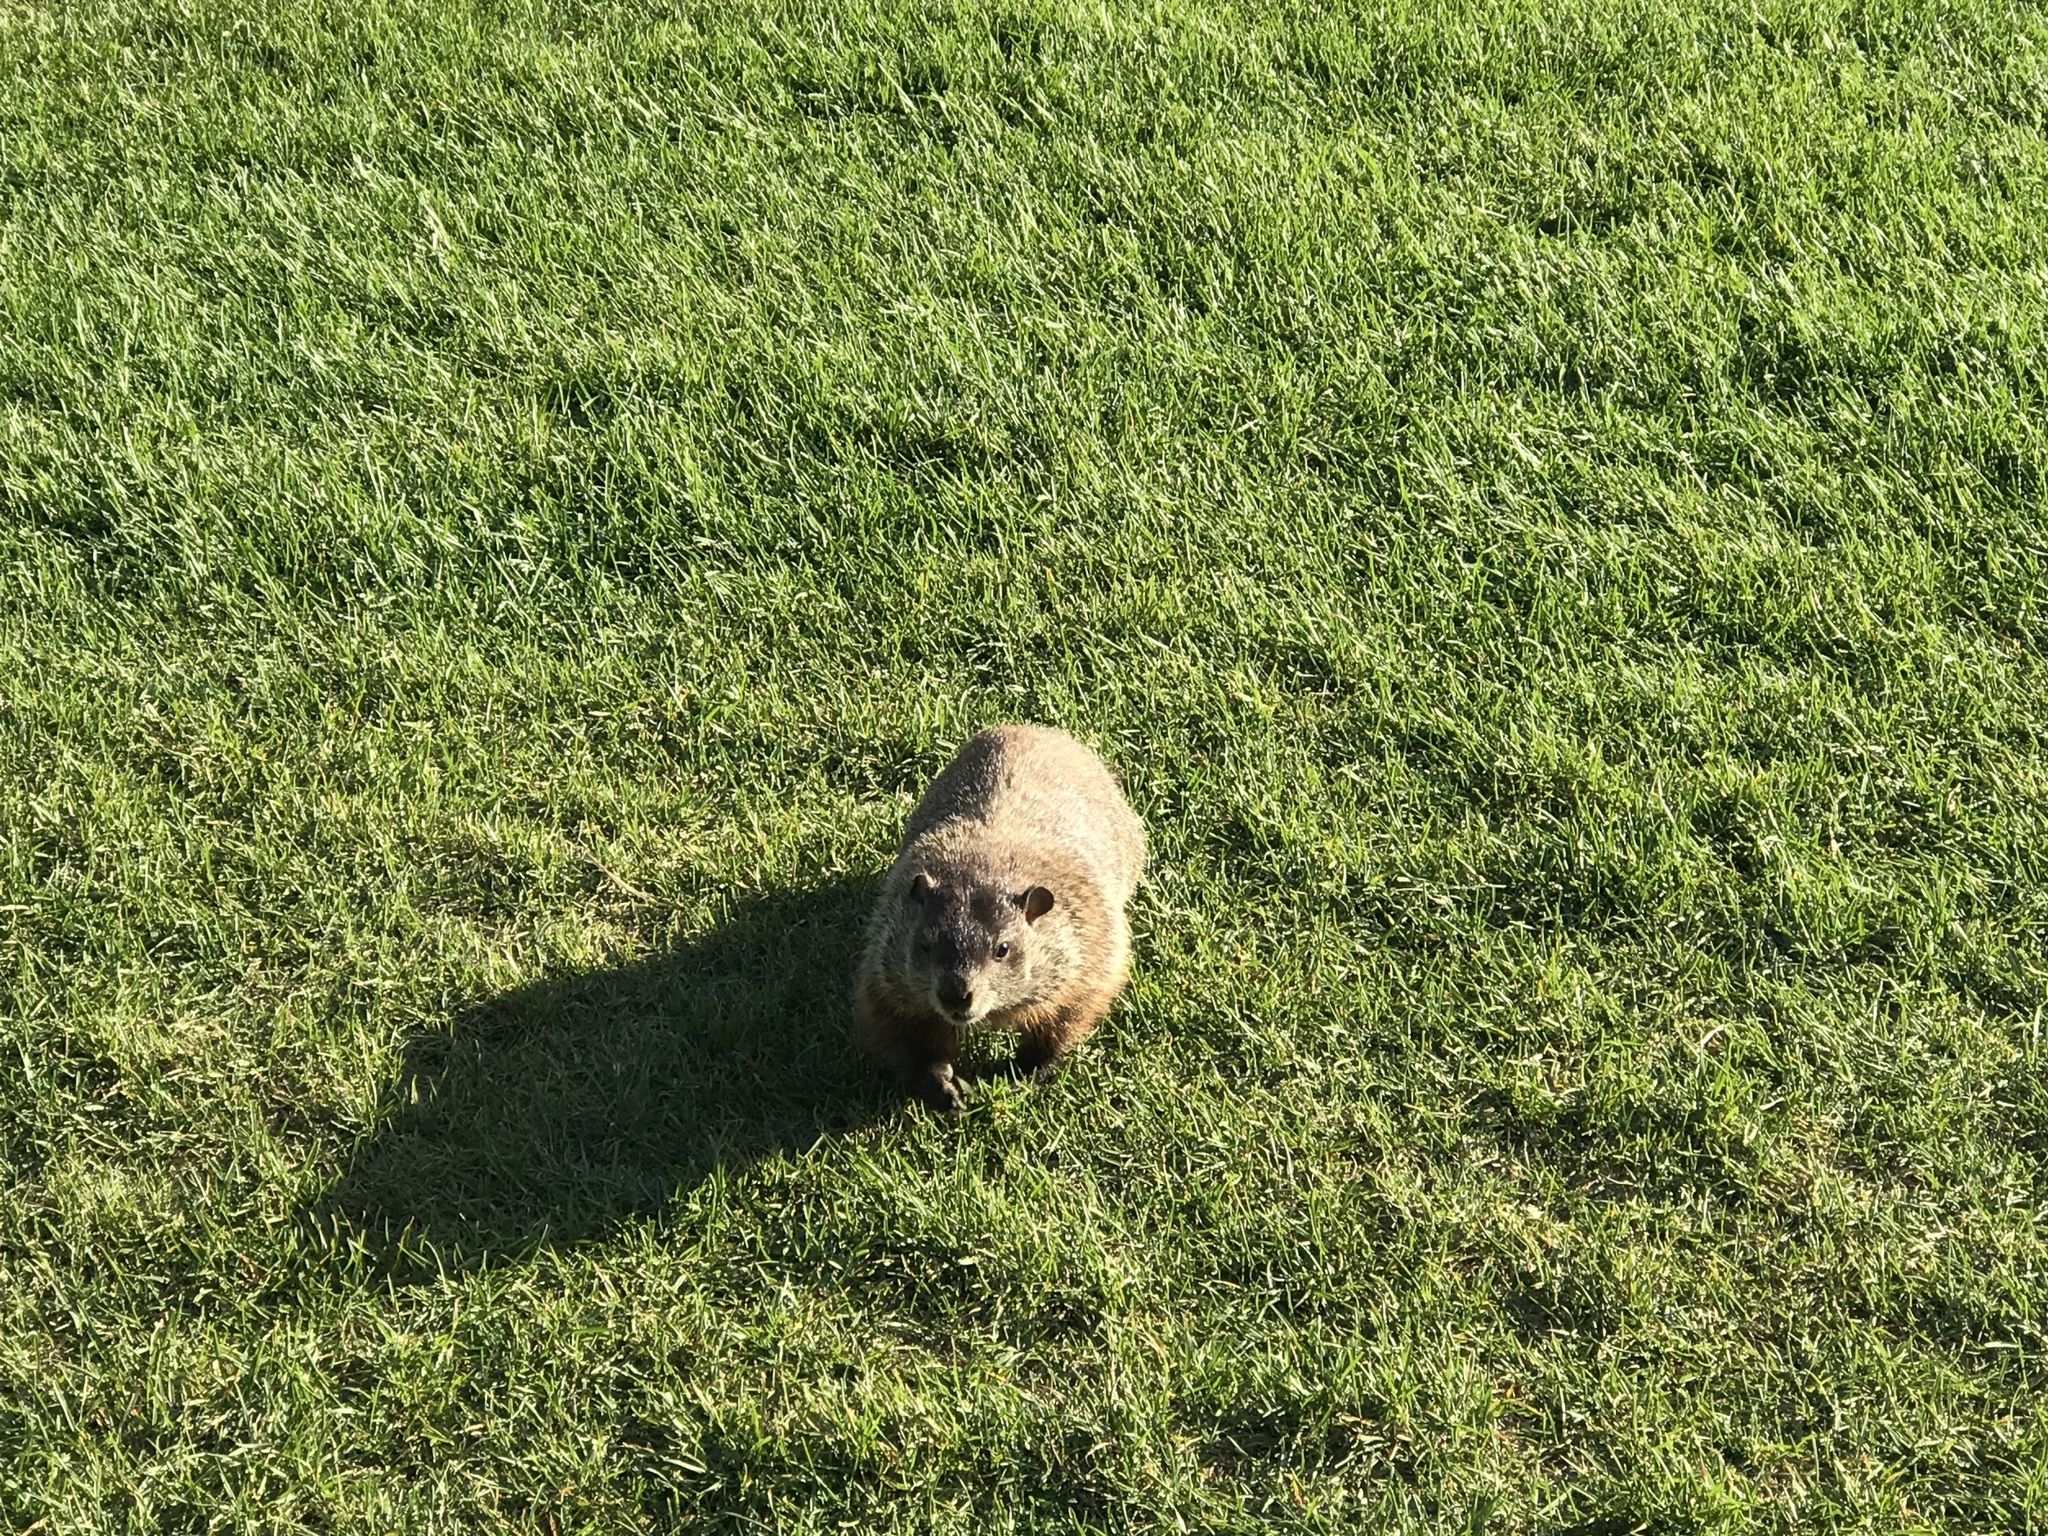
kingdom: Animalia
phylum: Chordata
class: Mammalia
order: Rodentia
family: Sciuridae
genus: Marmota
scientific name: Marmota monax
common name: Groundhog
